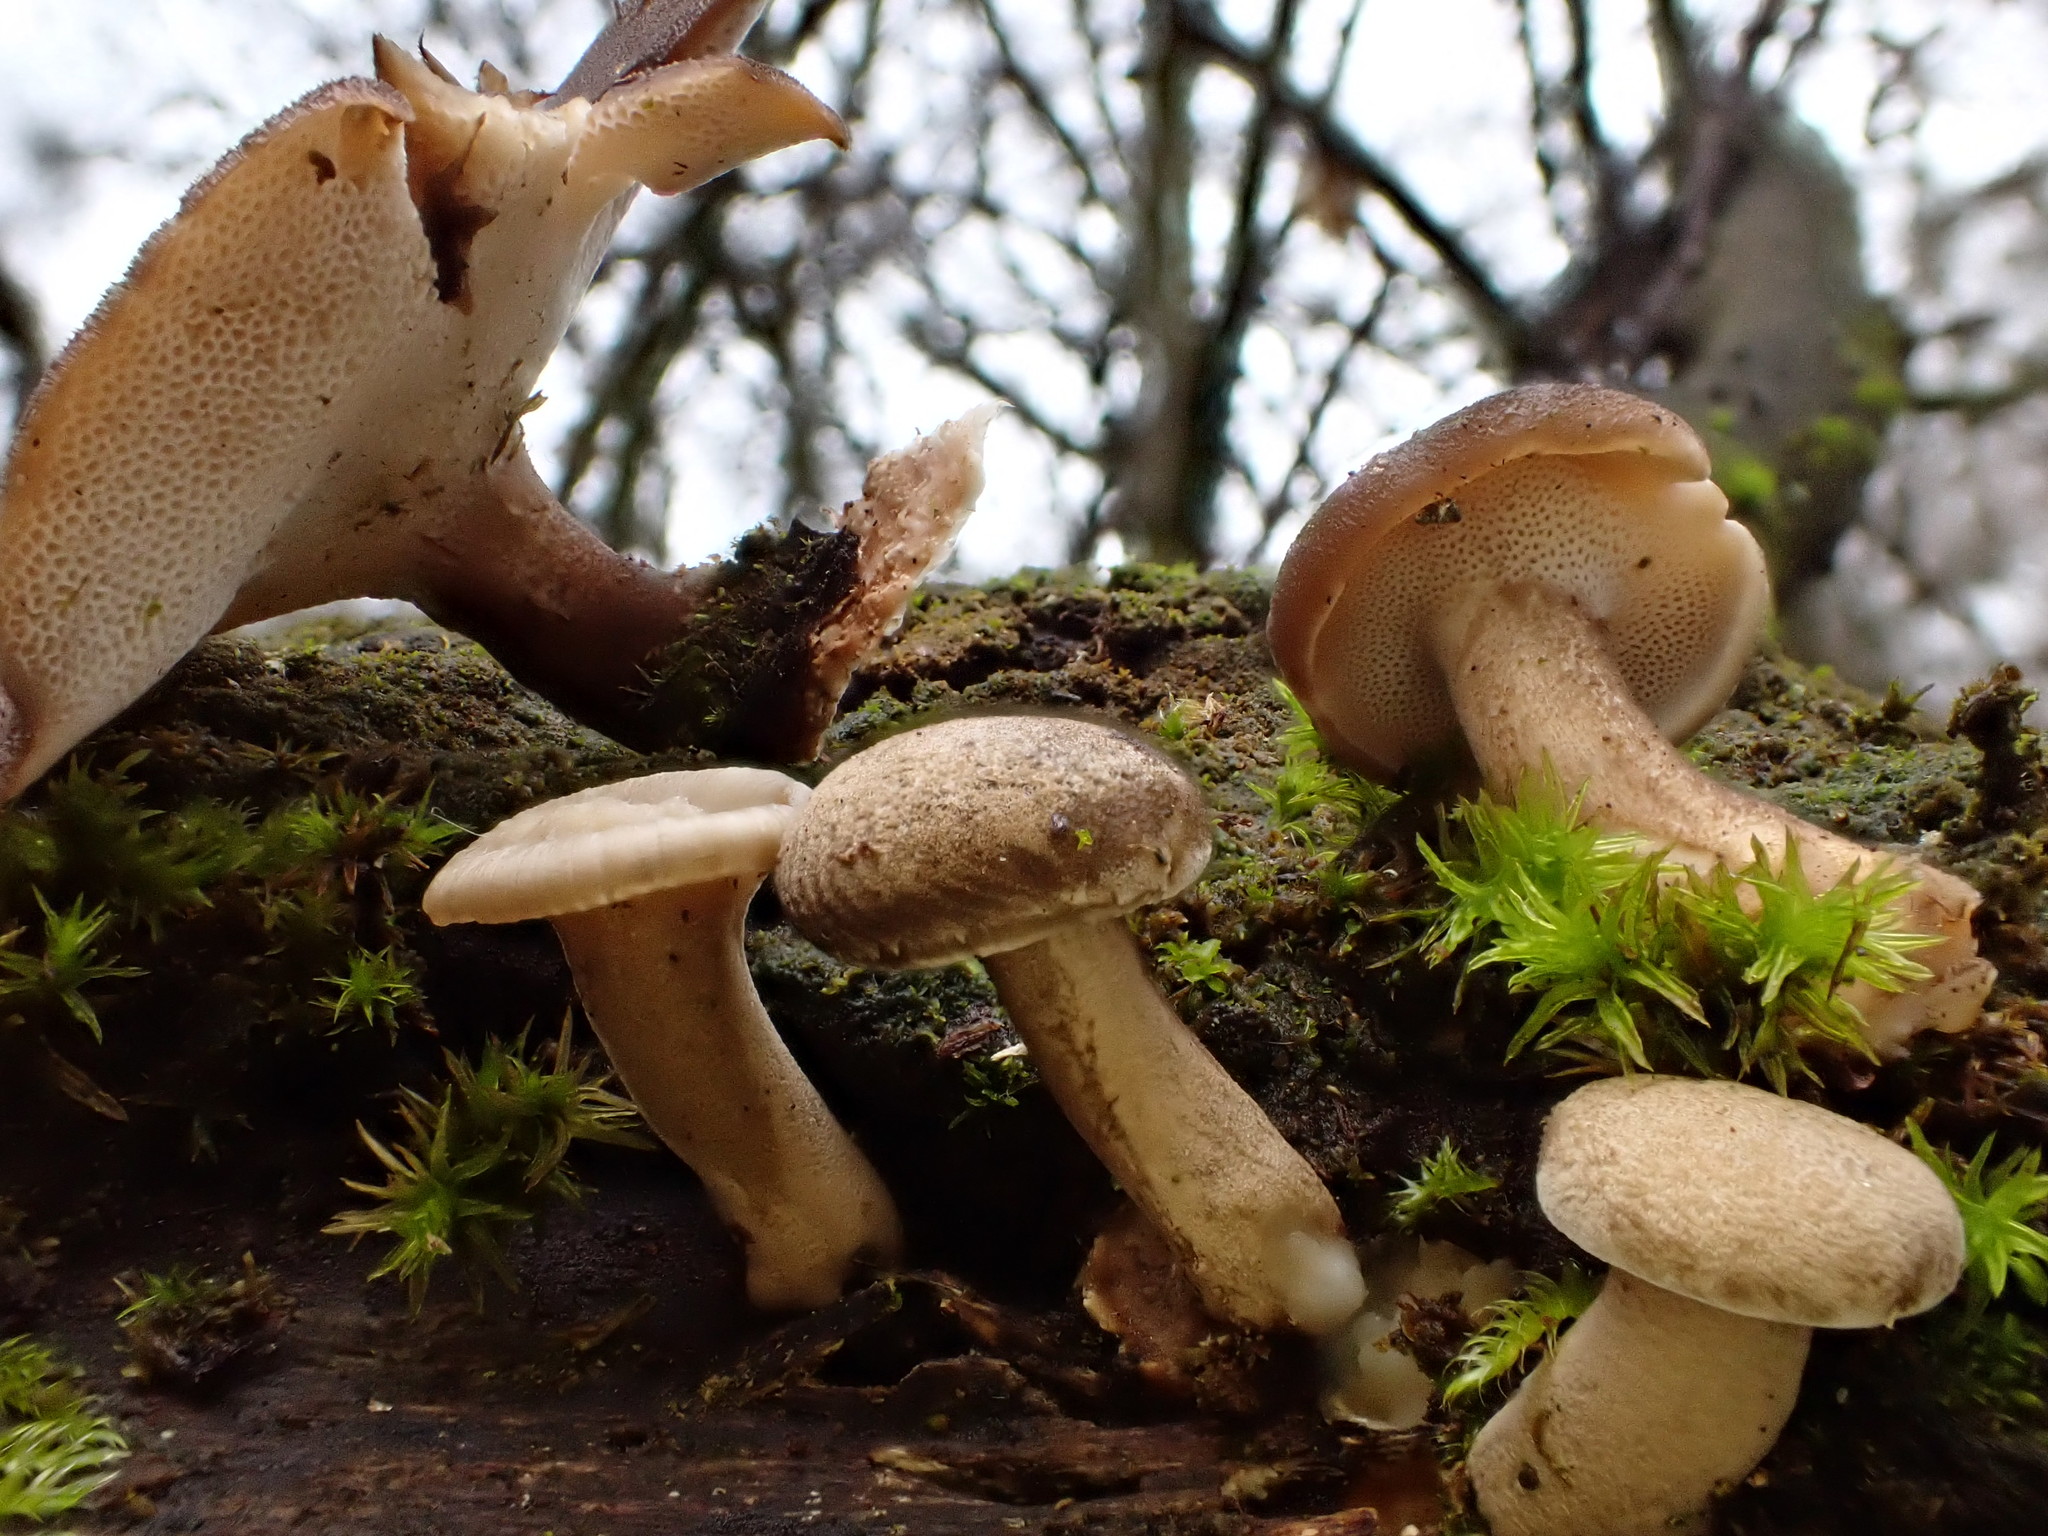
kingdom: Fungi
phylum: Basidiomycota
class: Agaricomycetes
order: Polyporales
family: Polyporaceae
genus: Lentinus
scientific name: Lentinus brumalis
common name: Winter polypore
